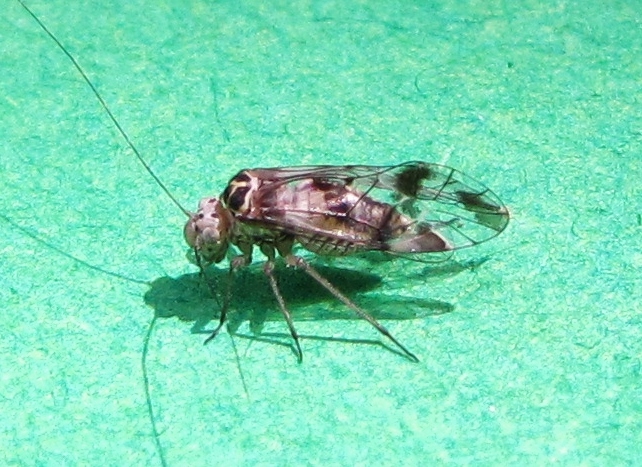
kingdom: Animalia
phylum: Arthropoda
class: Insecta
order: Psocodea
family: Psocidae
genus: Metylophorus
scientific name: Metylophorus novaescotiae
